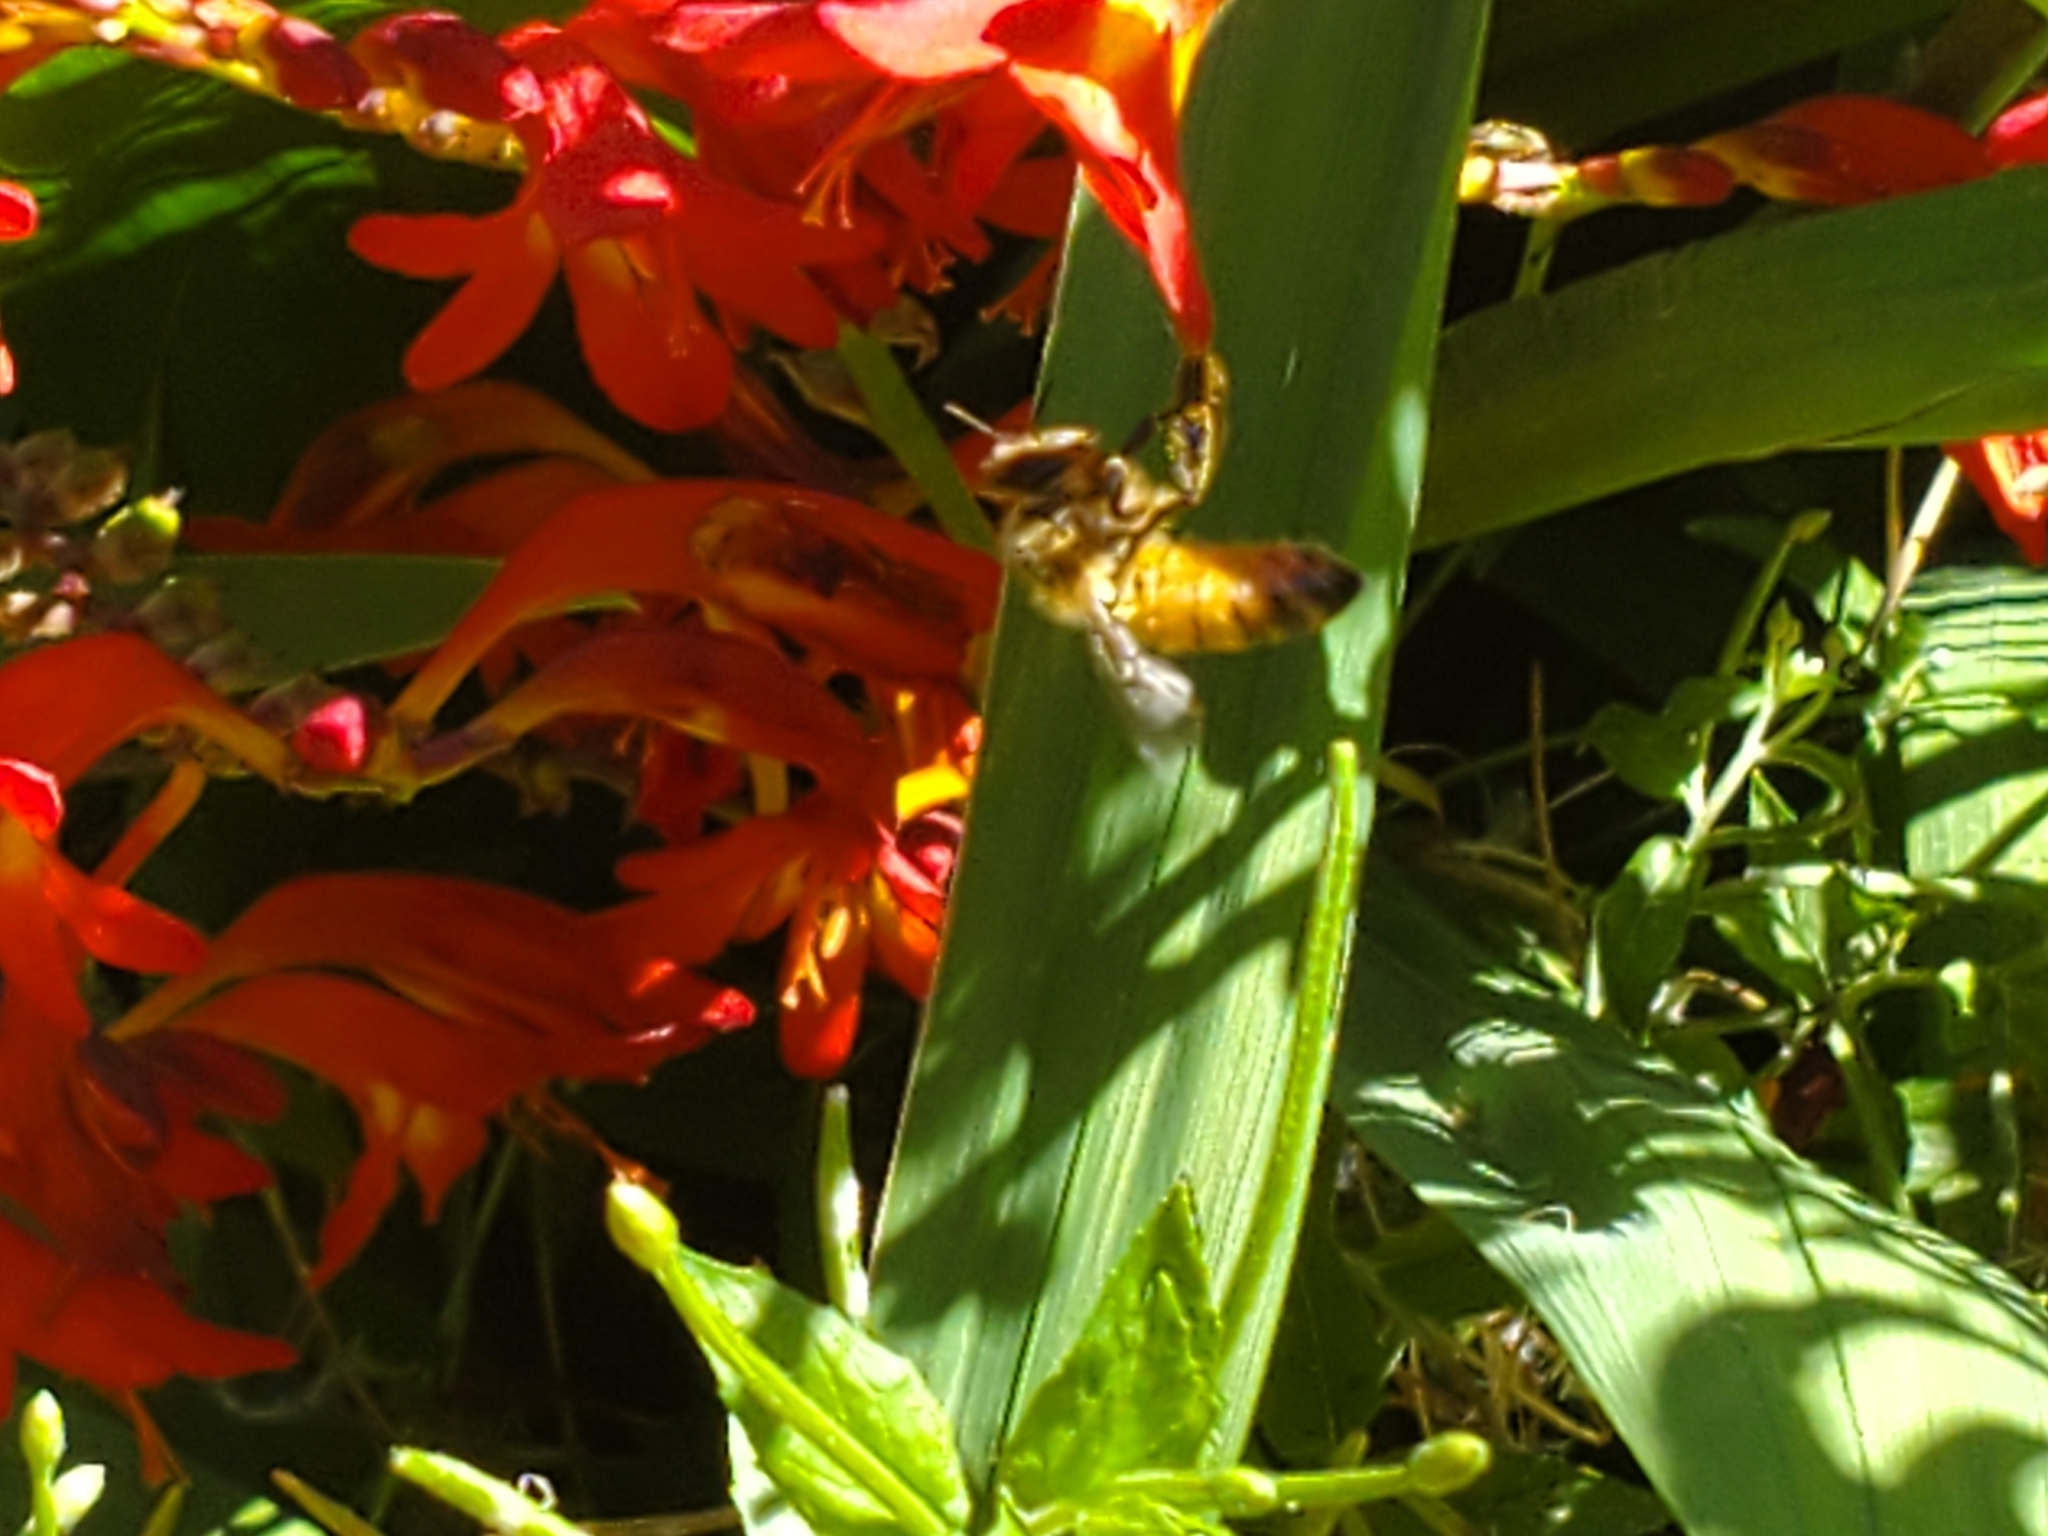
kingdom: Animalia
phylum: Arthropoda
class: Insecta
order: Hymenoptera
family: Apidae
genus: Apis
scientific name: Apis mellifera
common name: Honey bee
